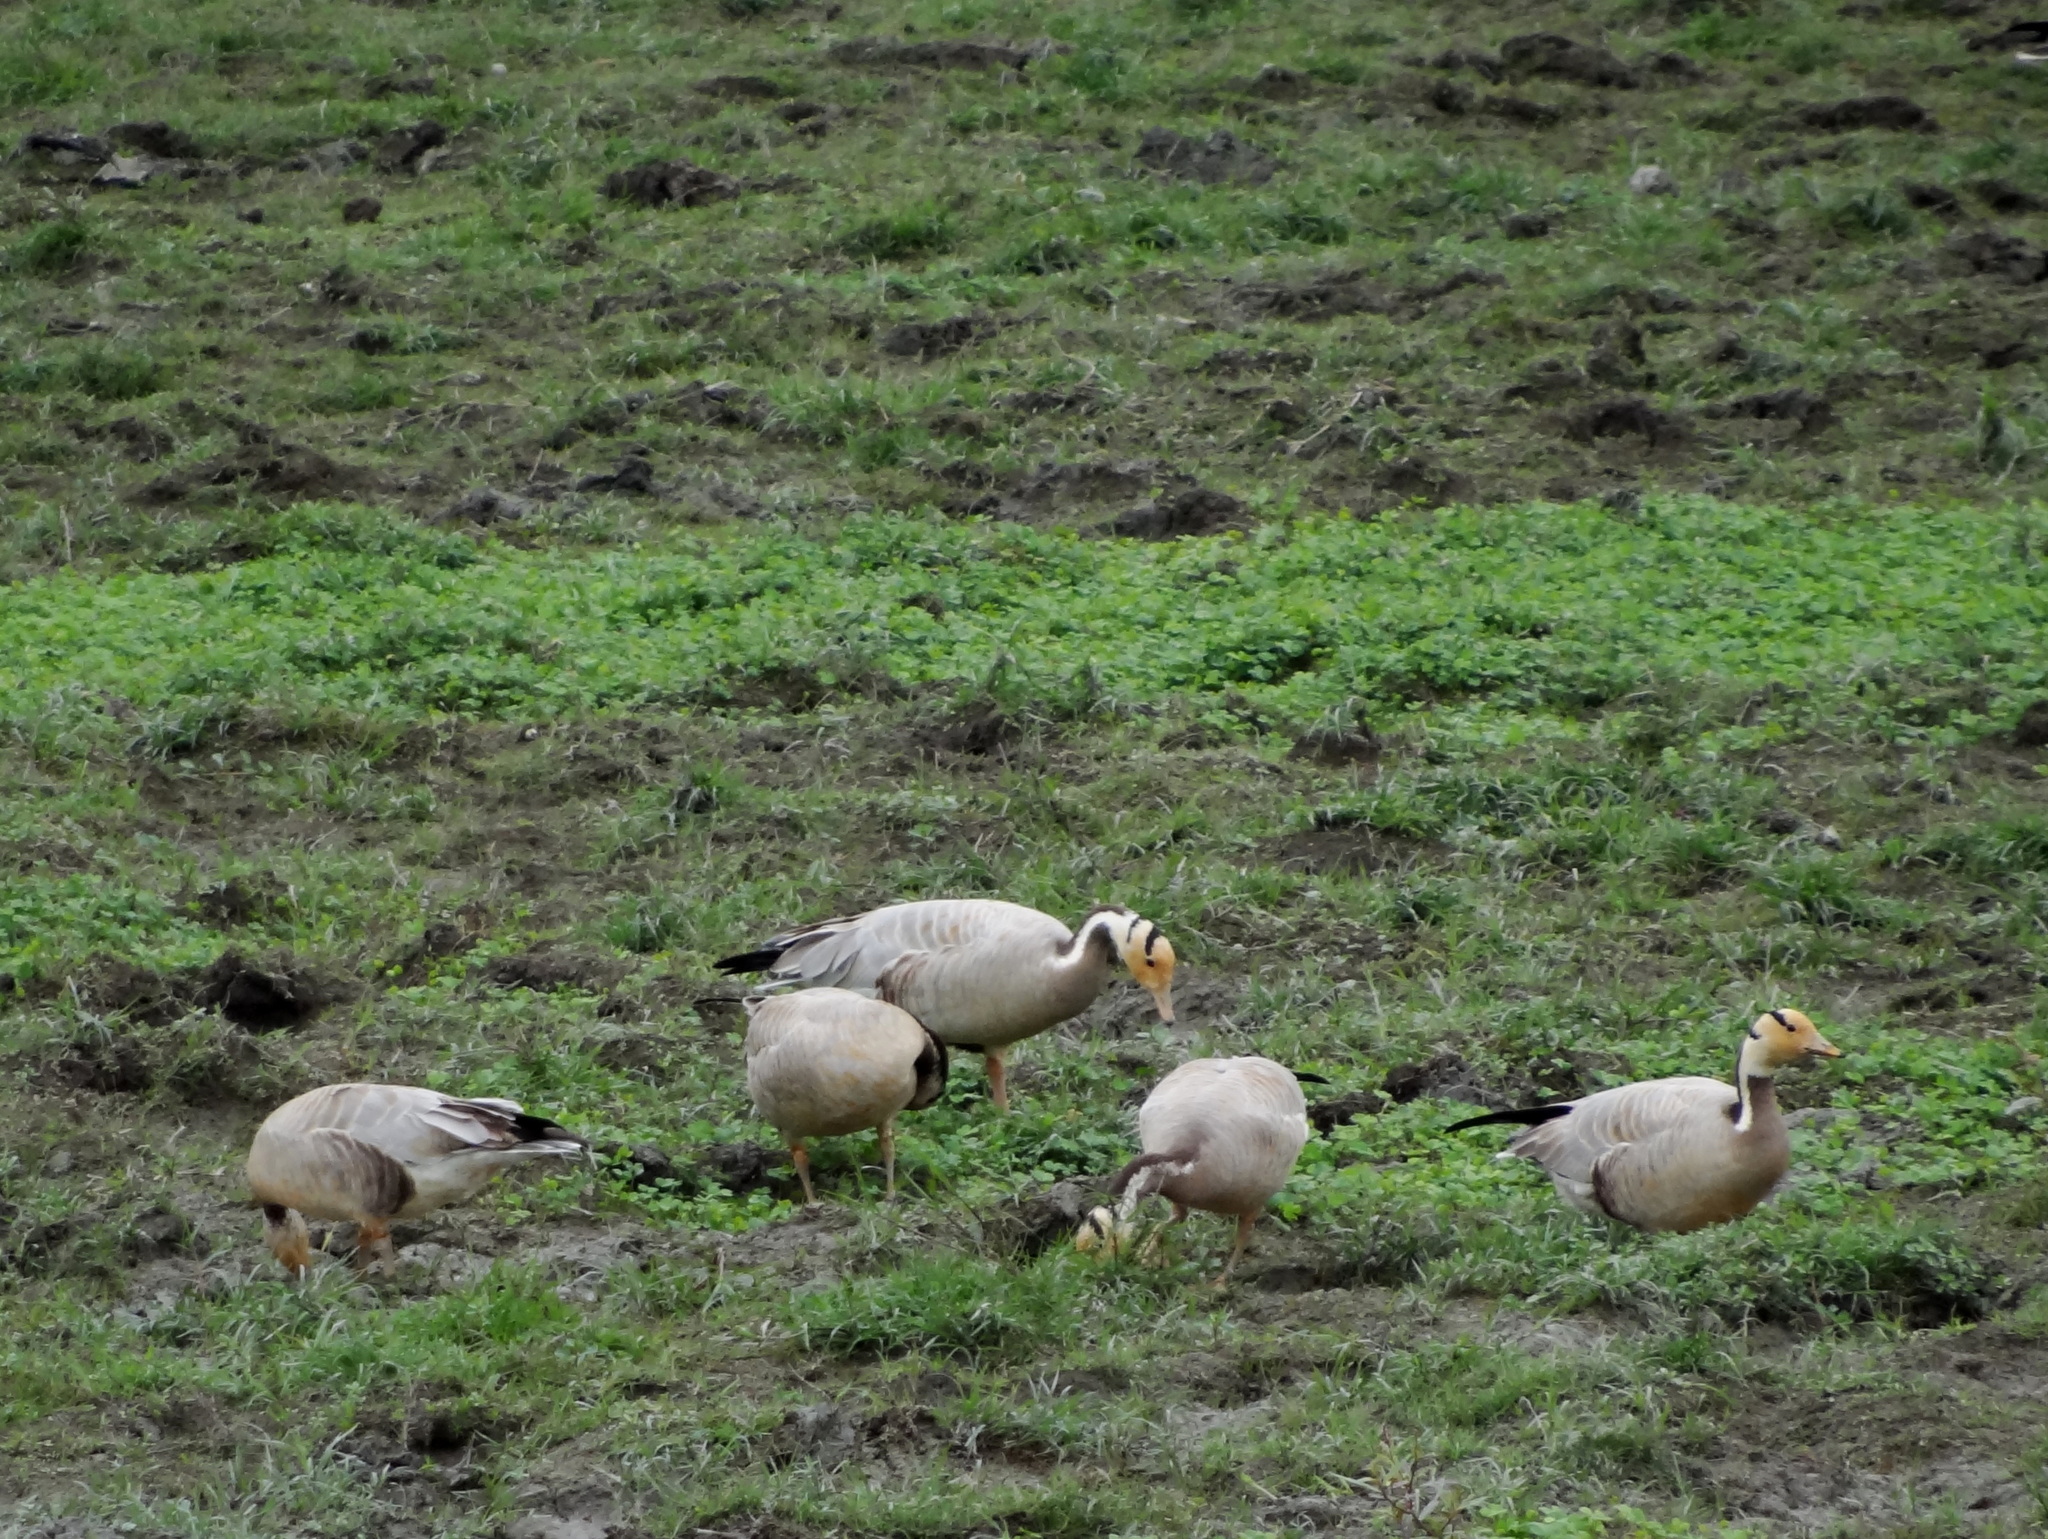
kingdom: Animalia
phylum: Chordata
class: Aves
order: Anseriformes
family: Anatidae
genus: Anser
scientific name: Anser indicus
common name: Bar-headed goose
